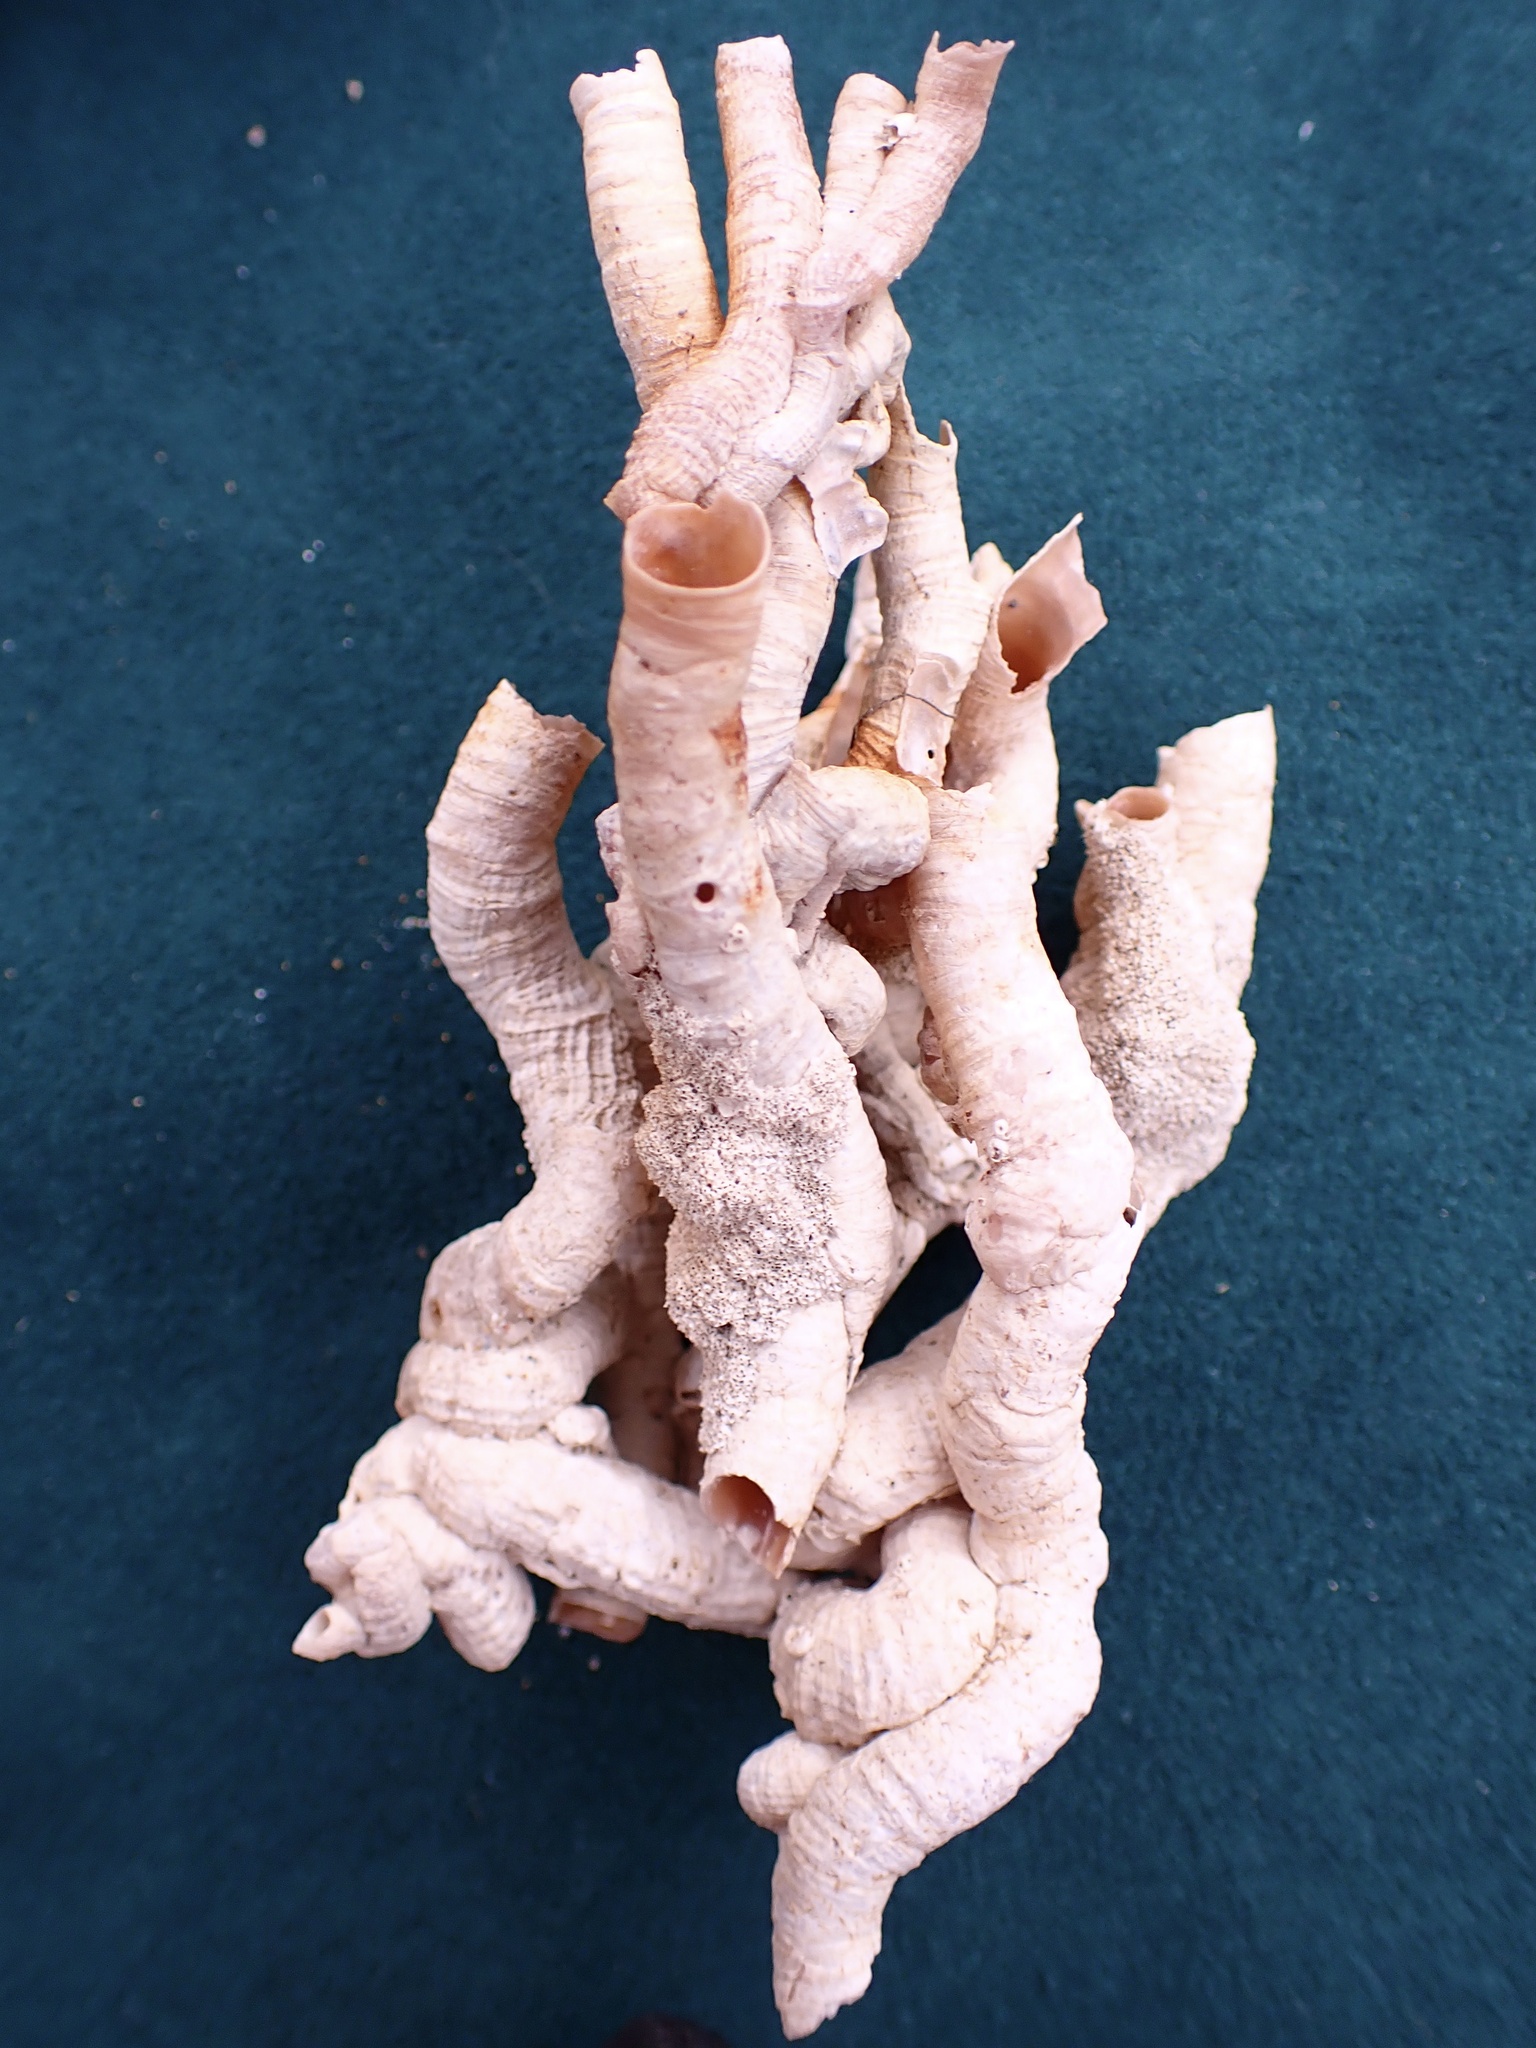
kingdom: Animalia
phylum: Mollusca
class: Gastropoda
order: Littorinimorpha
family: Vermetidae
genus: Thylacodes
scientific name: Thylacodes squamigerus
